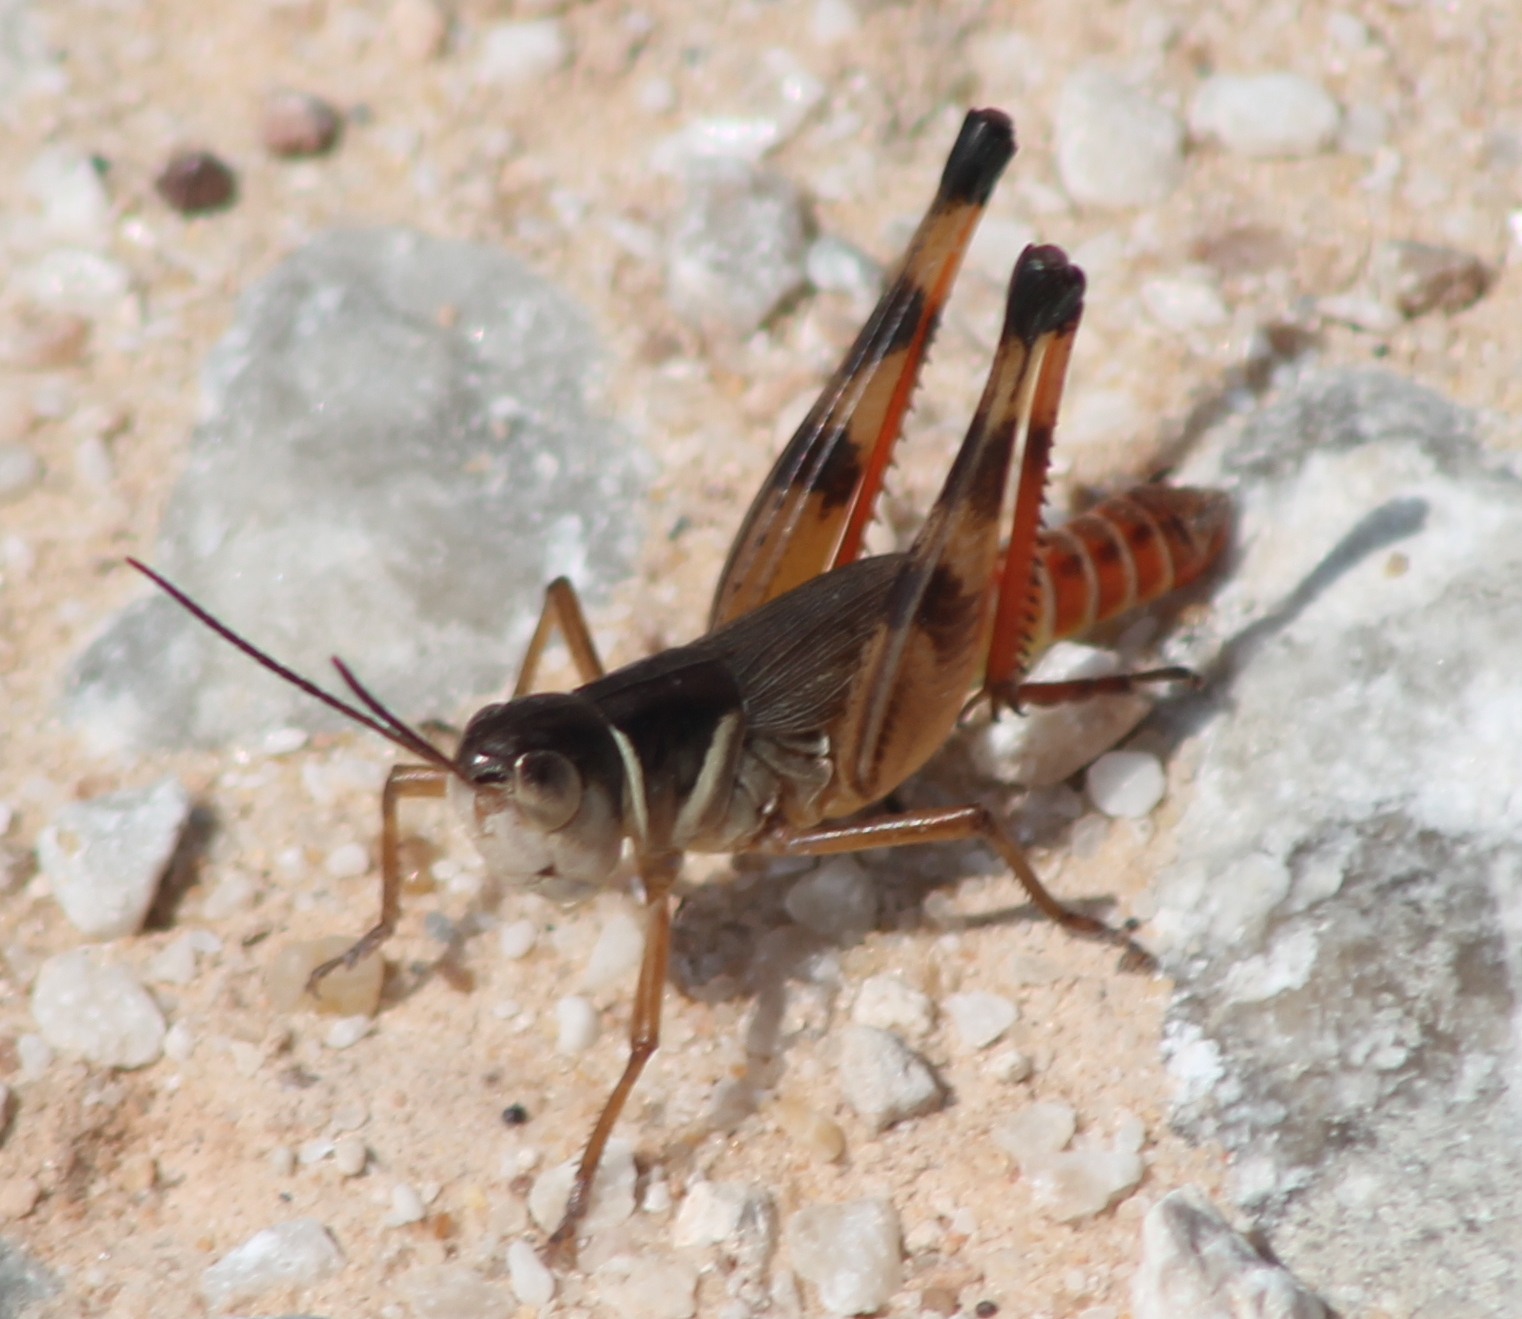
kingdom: Animalia
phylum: Arthropoda
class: Insecta
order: Orthoptera
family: Acrididae
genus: Boopedon
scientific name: Boopedon auriventris
